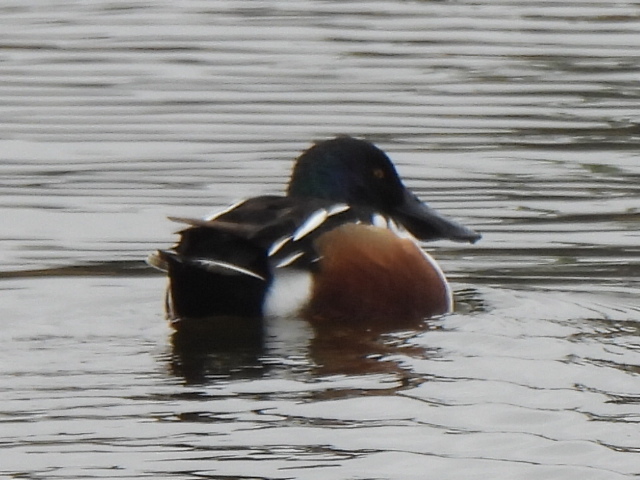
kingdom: Animalia
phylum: Chordata
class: Aves
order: Anseriformes
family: Anatidae
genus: Spatula
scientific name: Spatula clypeata
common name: Northern shoveler
